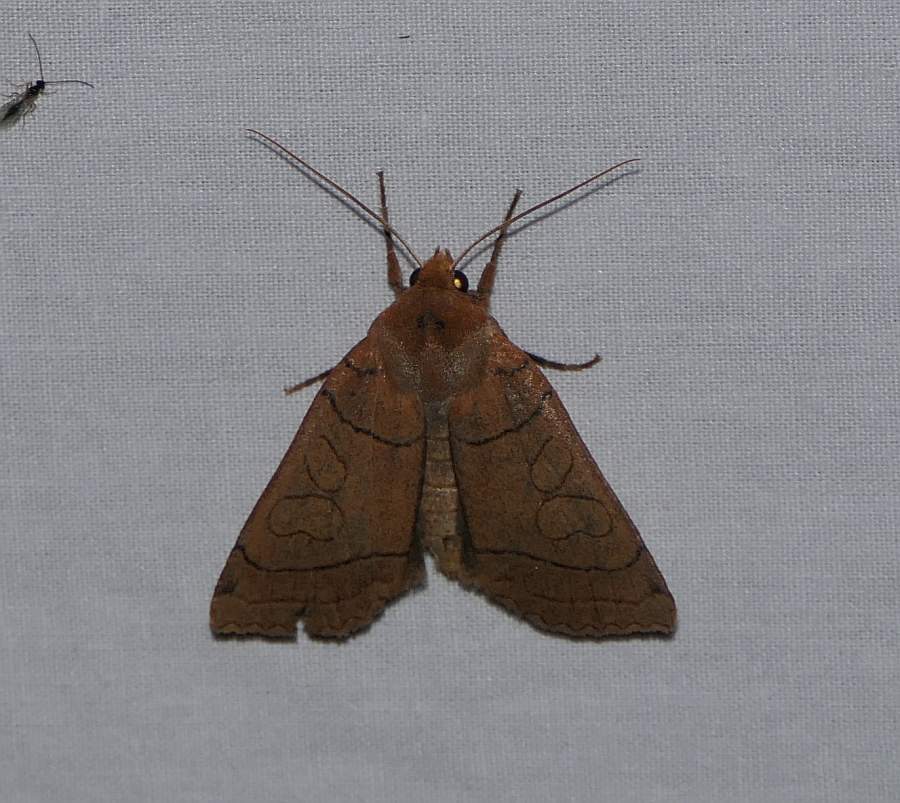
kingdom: Animalia
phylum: Arthropoda
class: Insecta
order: Lepidoptera
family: Noctuidae
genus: Metaxaglaea
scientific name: Metaxaglaea inulta
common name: Unsated sallow
